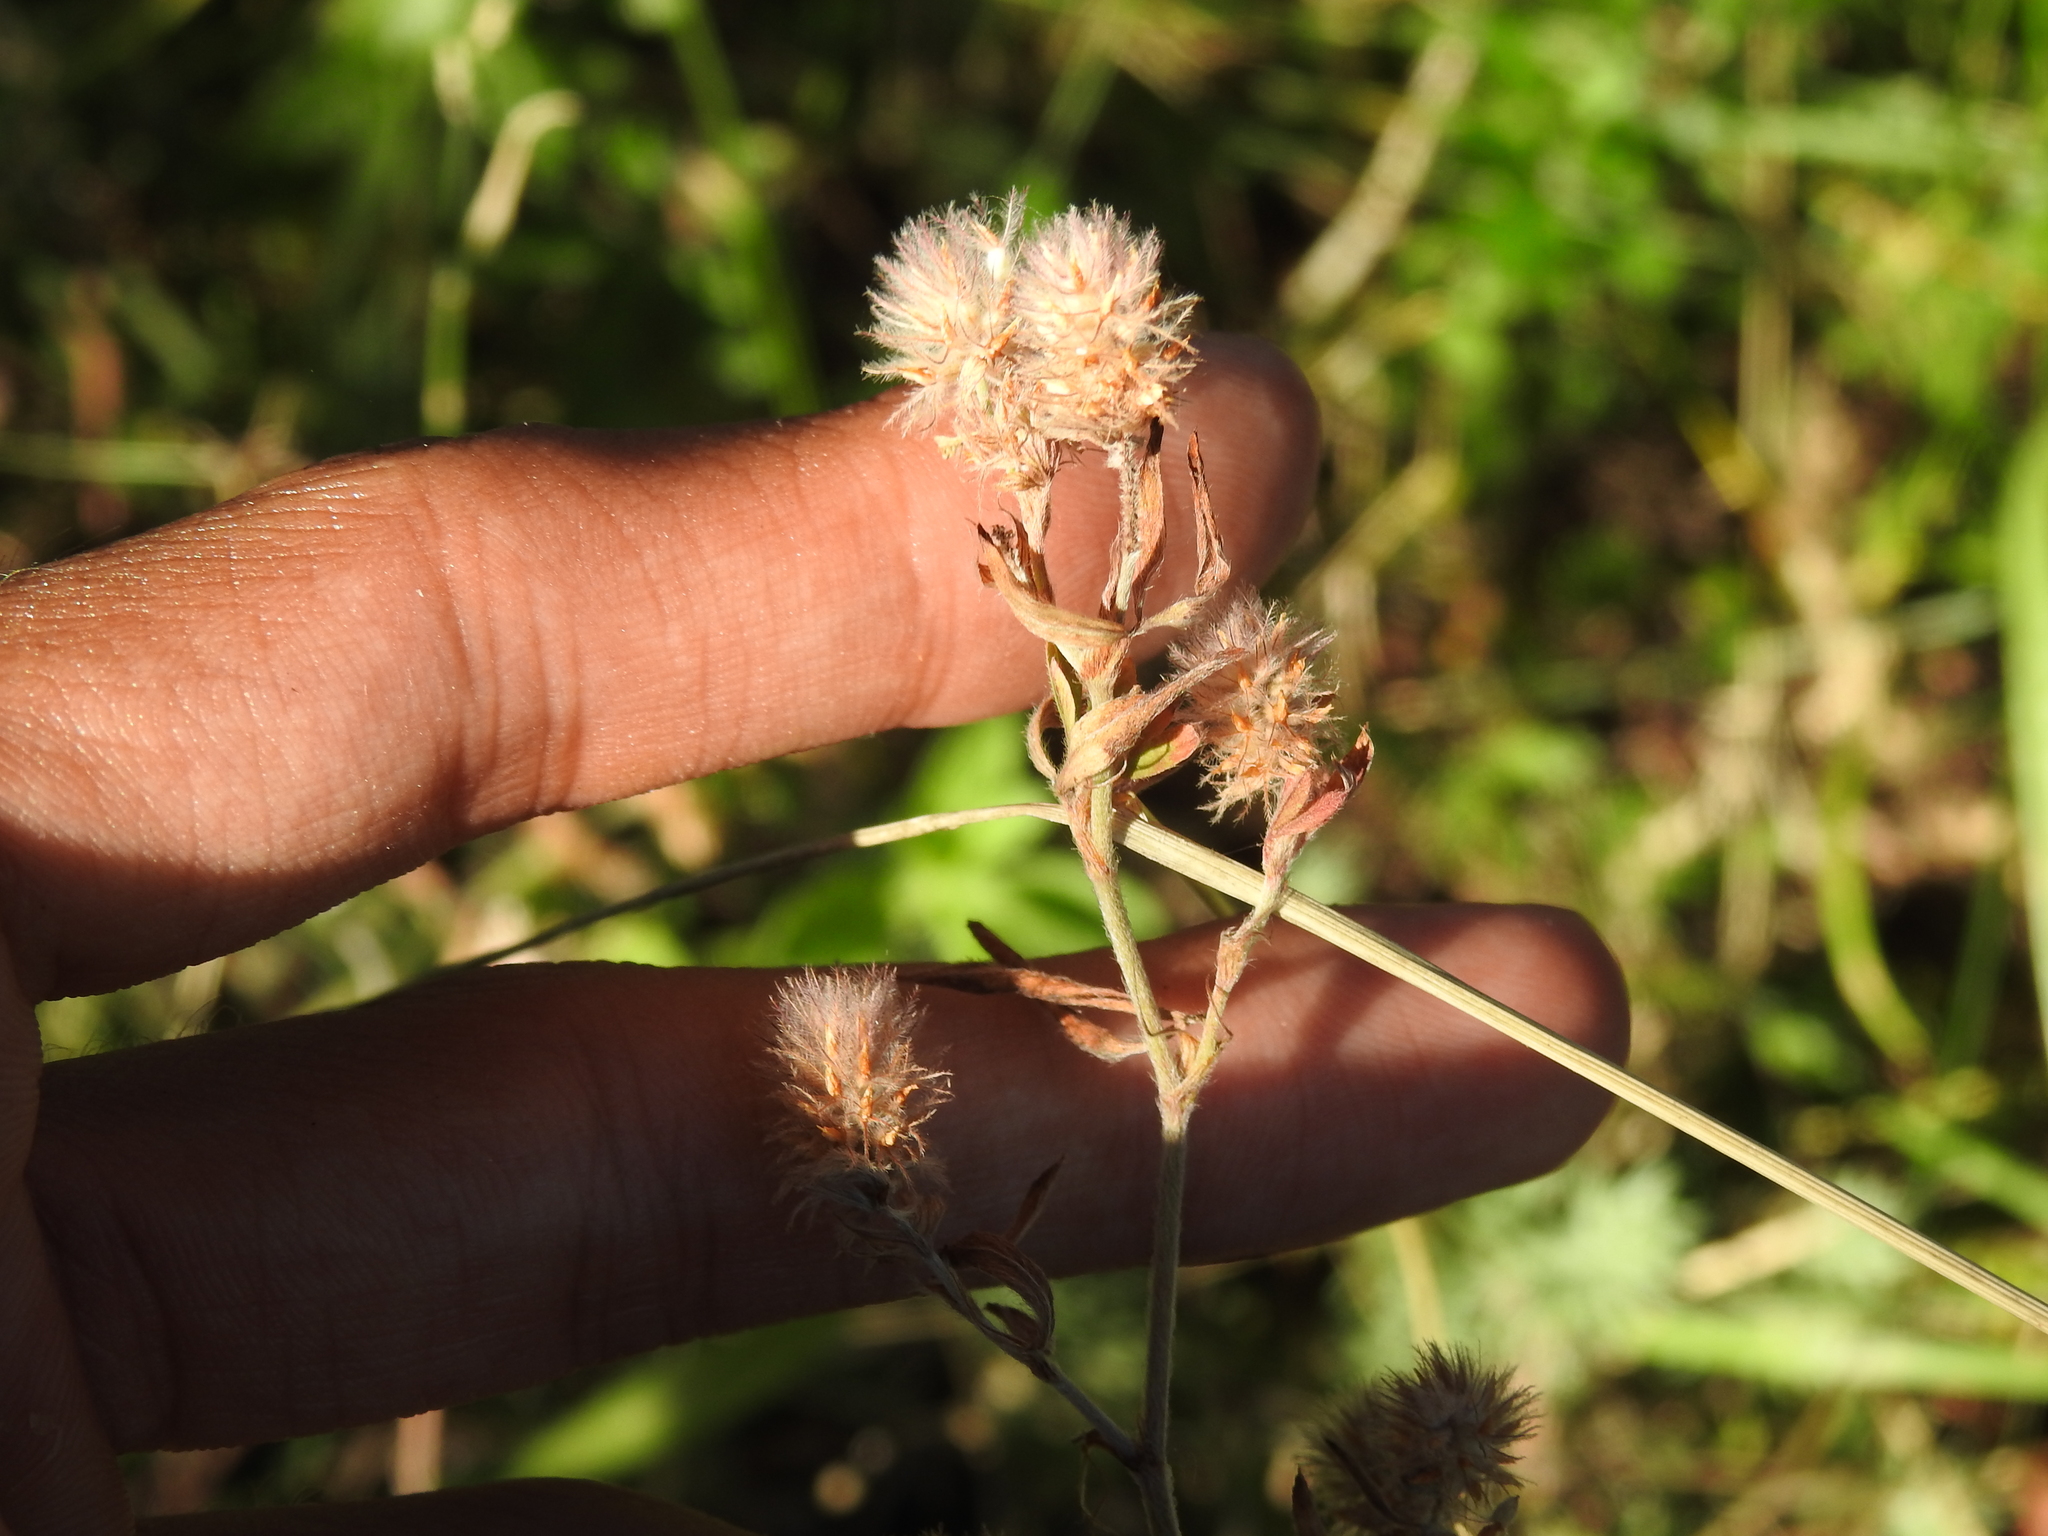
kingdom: Plantae
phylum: Tracheophyta
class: Magnoliopsida
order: Fabales
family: Fabaceae
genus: Trifolium
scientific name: Trifolium arvense
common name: Hare's-foot clover
